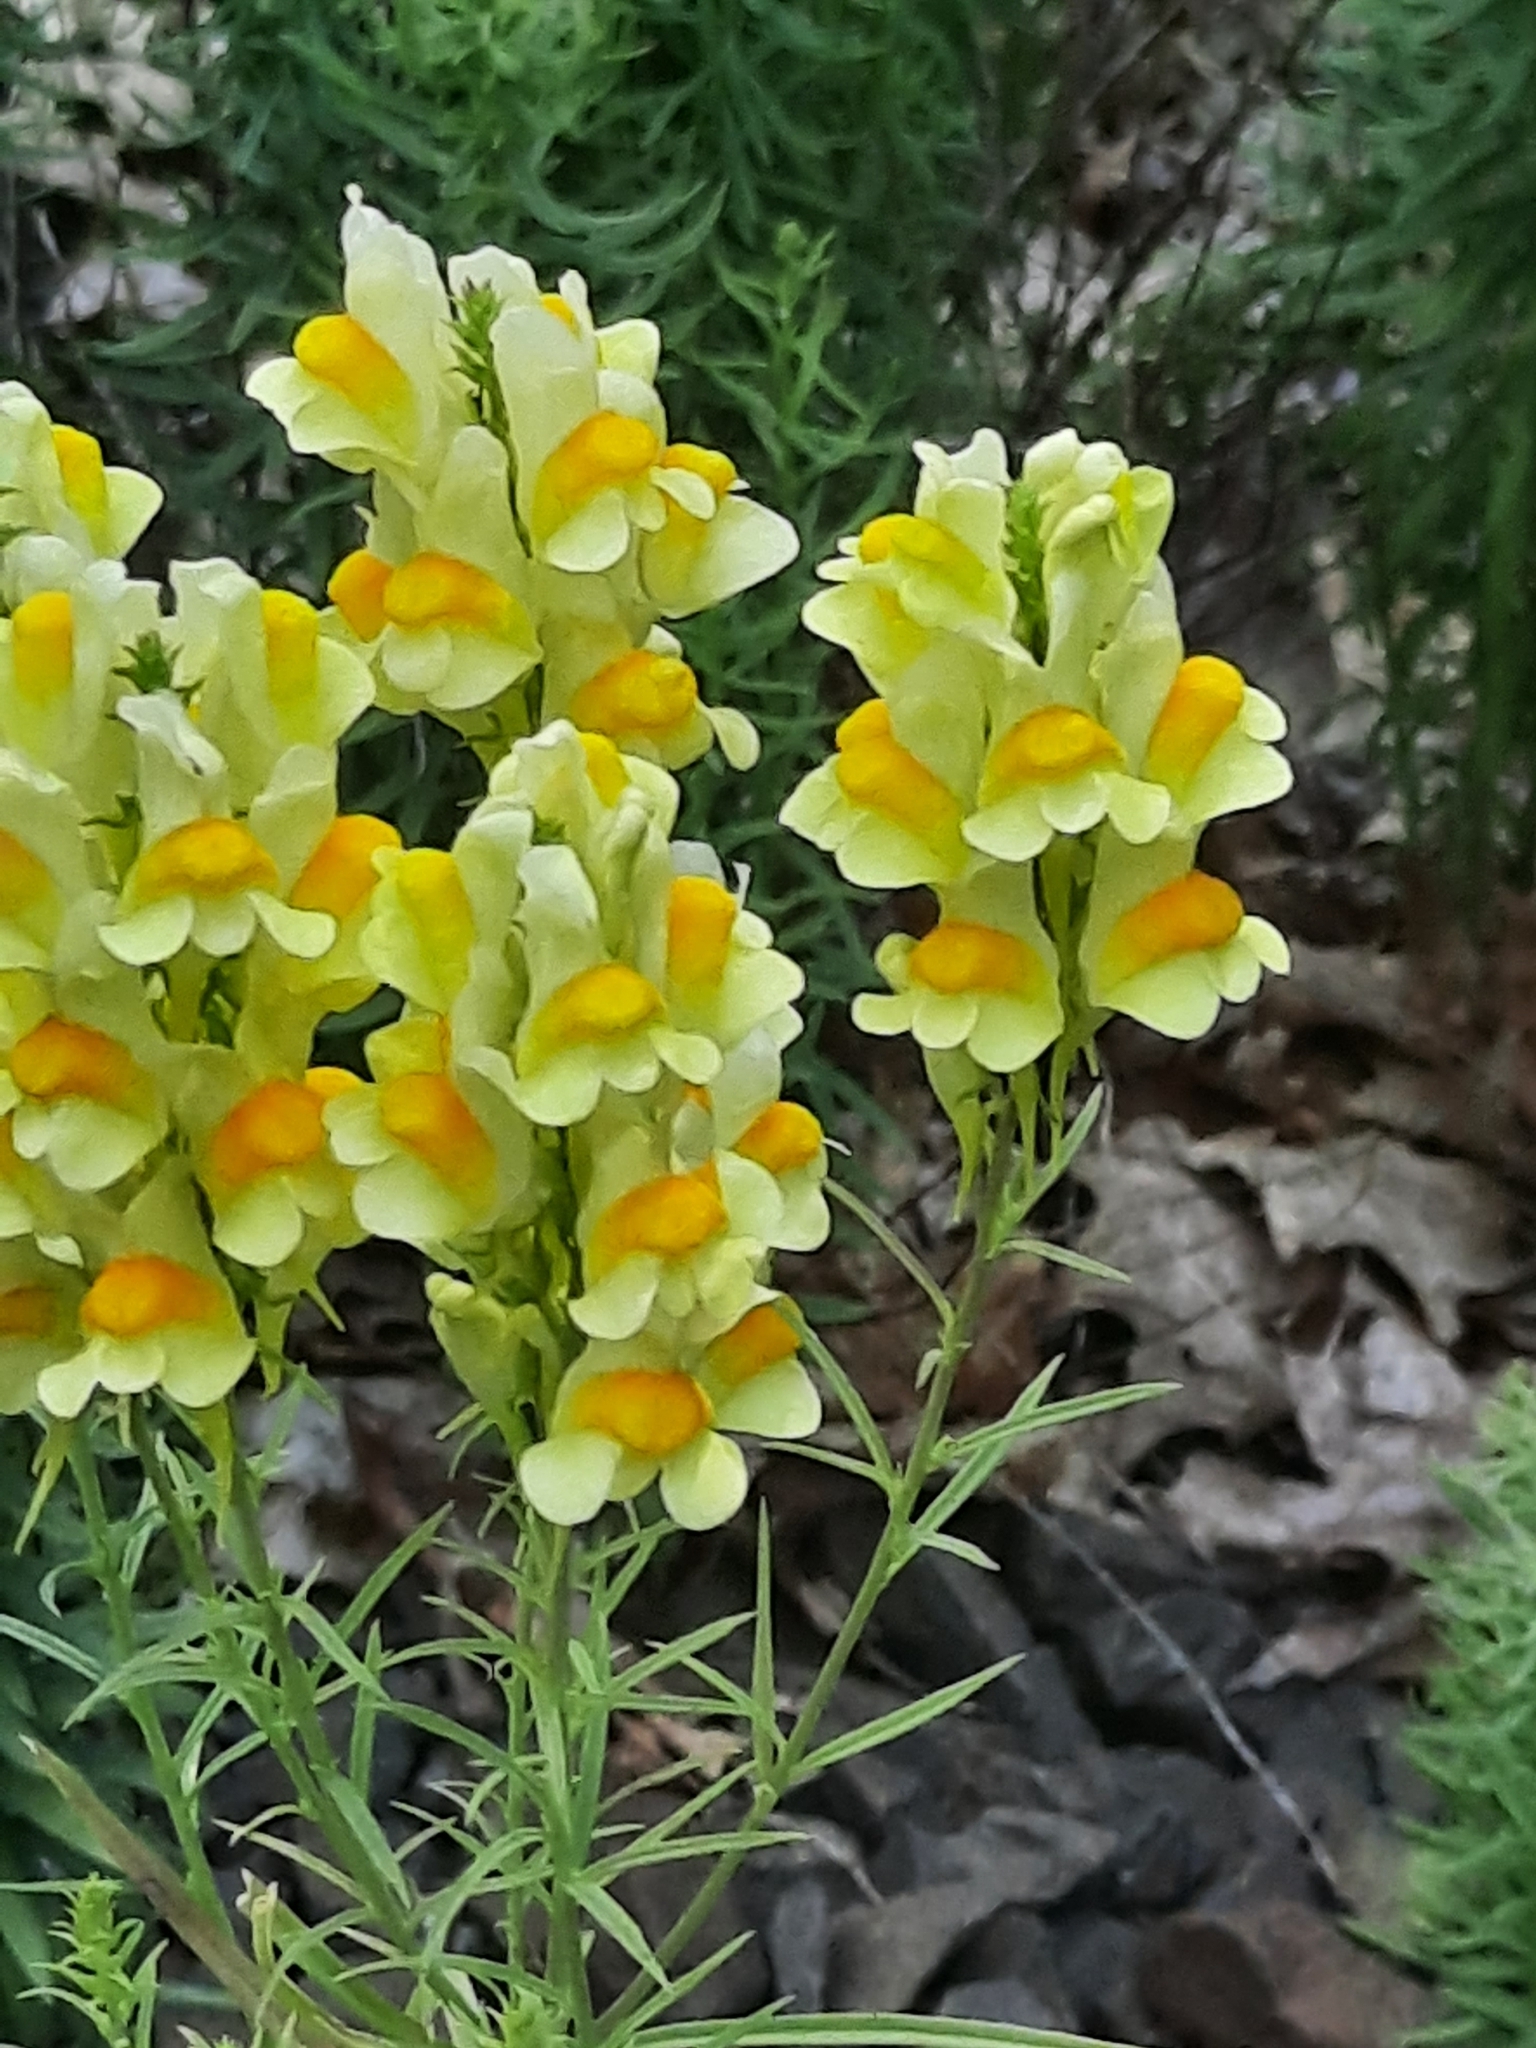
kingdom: Plantae
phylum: Tracheophyta
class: Magnoliopsida
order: Lamiales
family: Plantaginaceae
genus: Linaria
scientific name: Linaria vulgaris
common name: Butter and eggs
